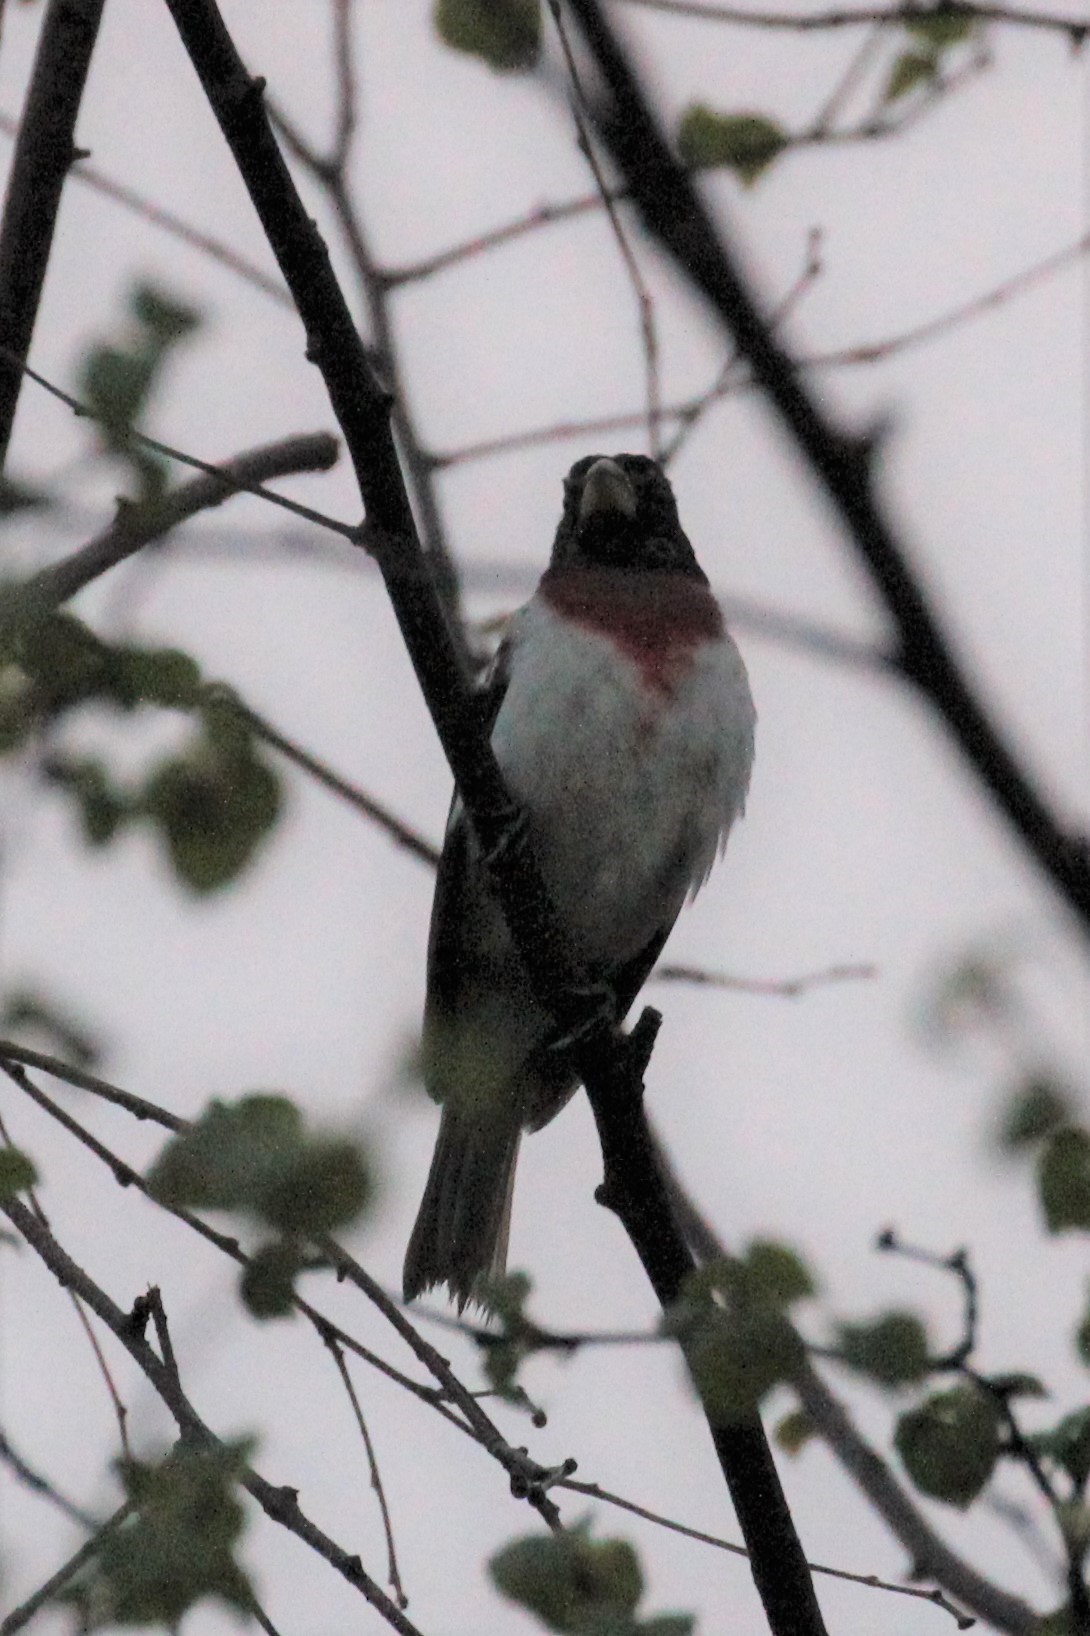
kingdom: Animalia
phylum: Chordata
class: Aves
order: Passeriformes
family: Cardinalidae
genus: Pheucticus
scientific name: Pheucticus ludovicianus
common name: Rose-breasted grosbeak
